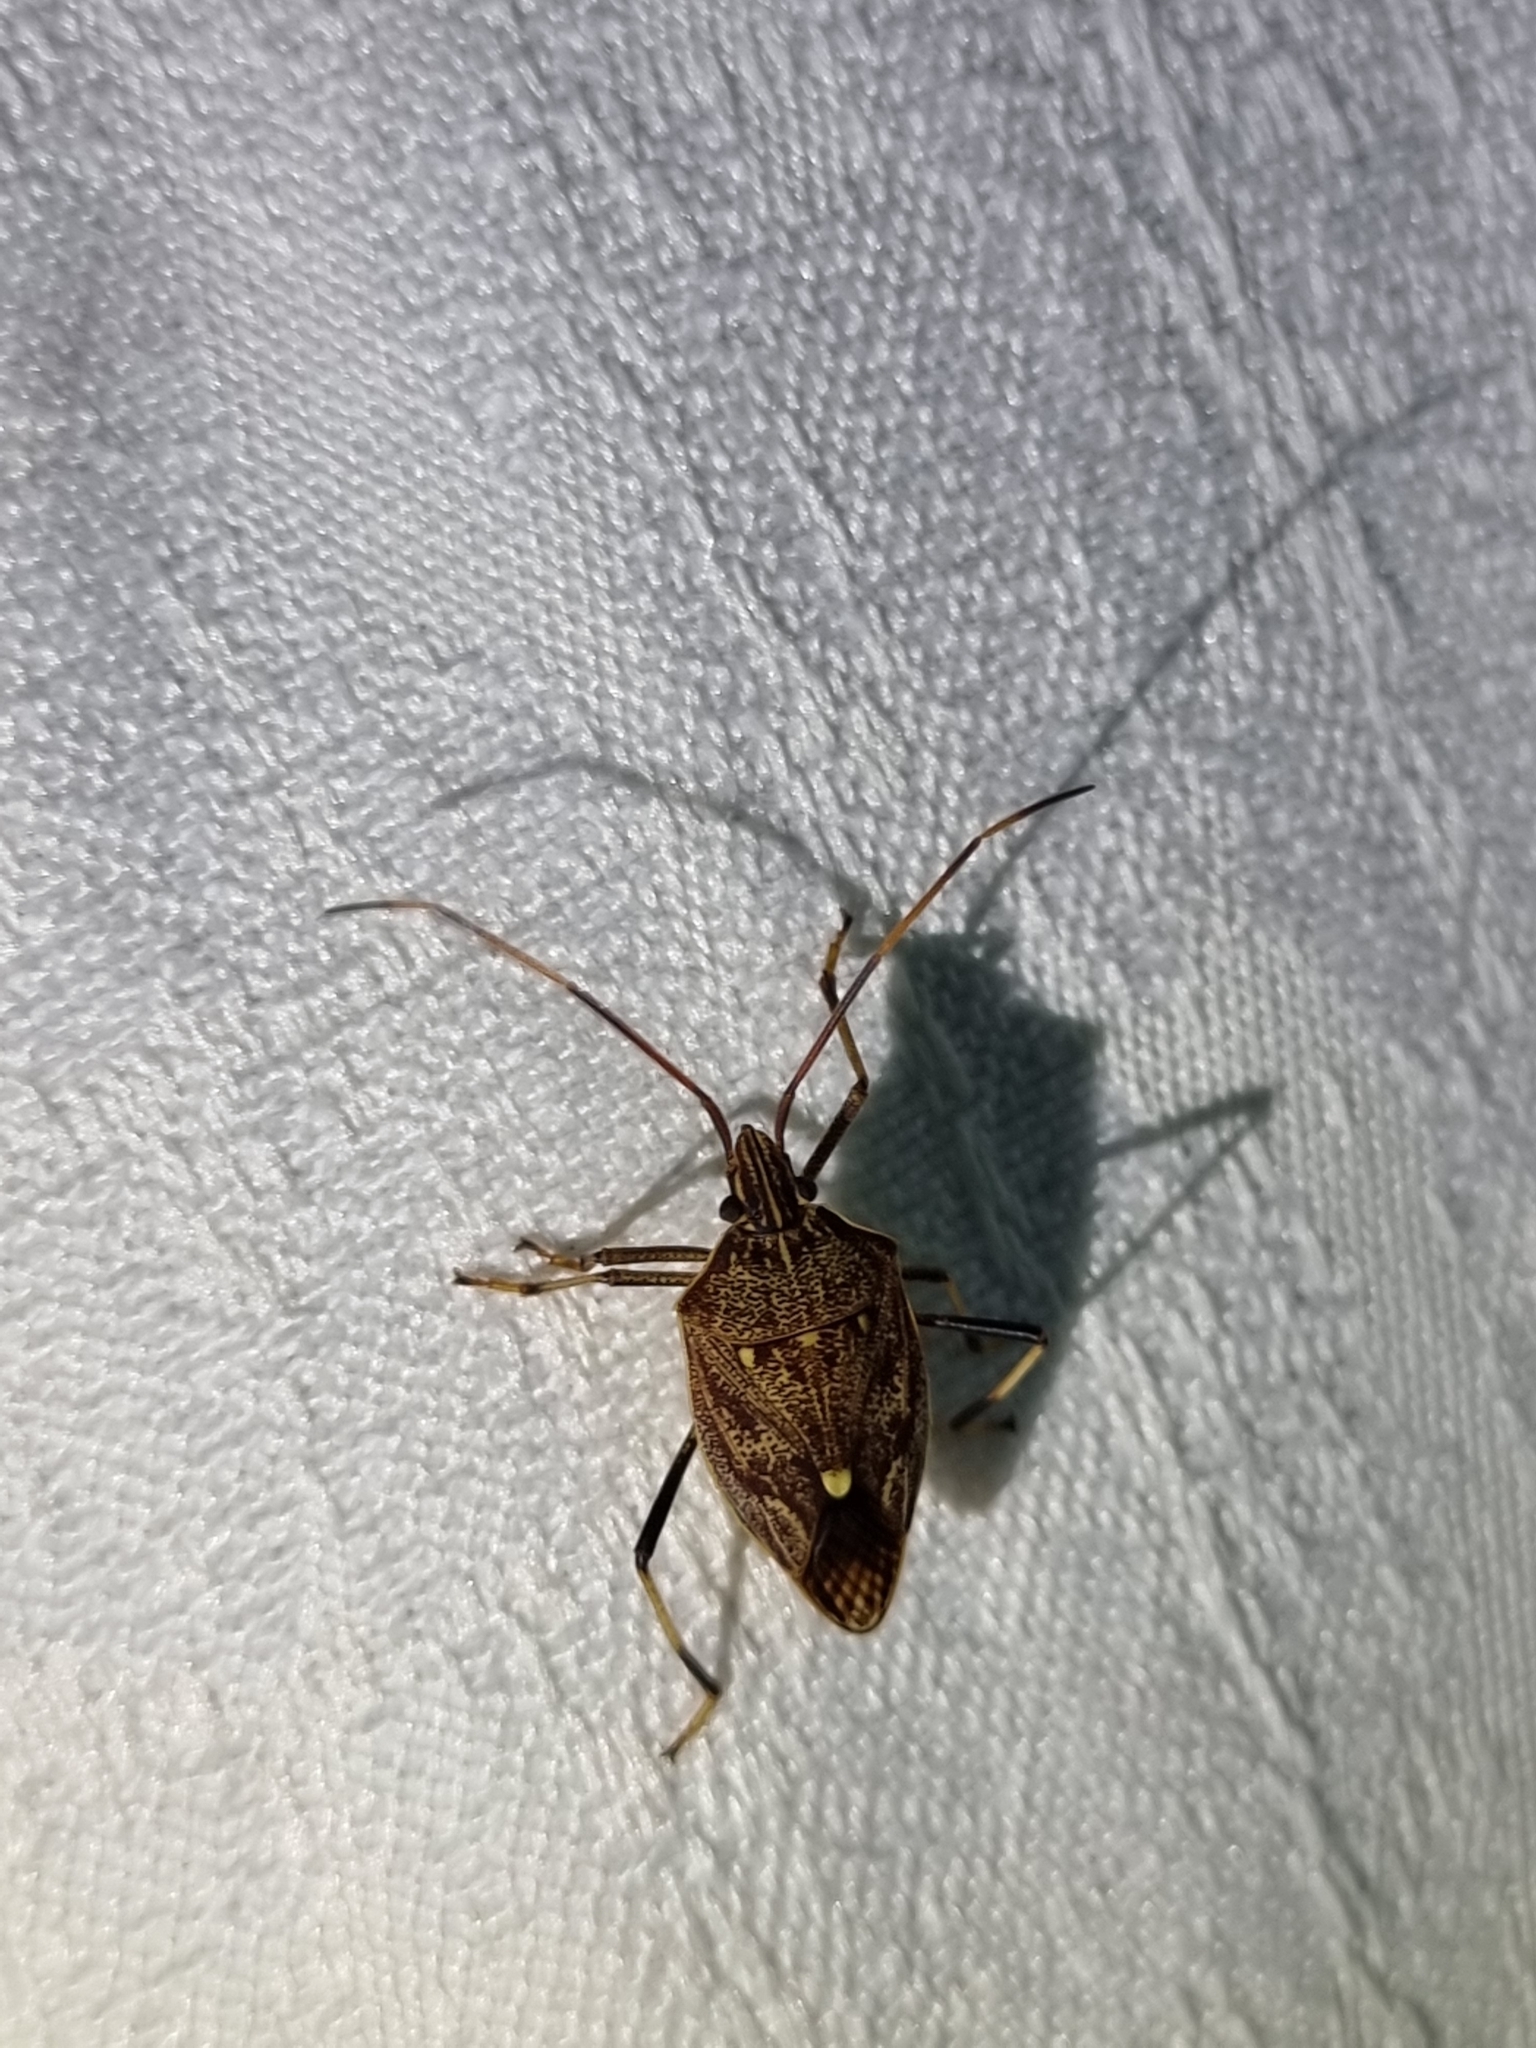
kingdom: Animalia
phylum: Arthropoda
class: Insecta
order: Hemiptera
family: Pentatomidae
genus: Poecilometis
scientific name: Poecilometis
